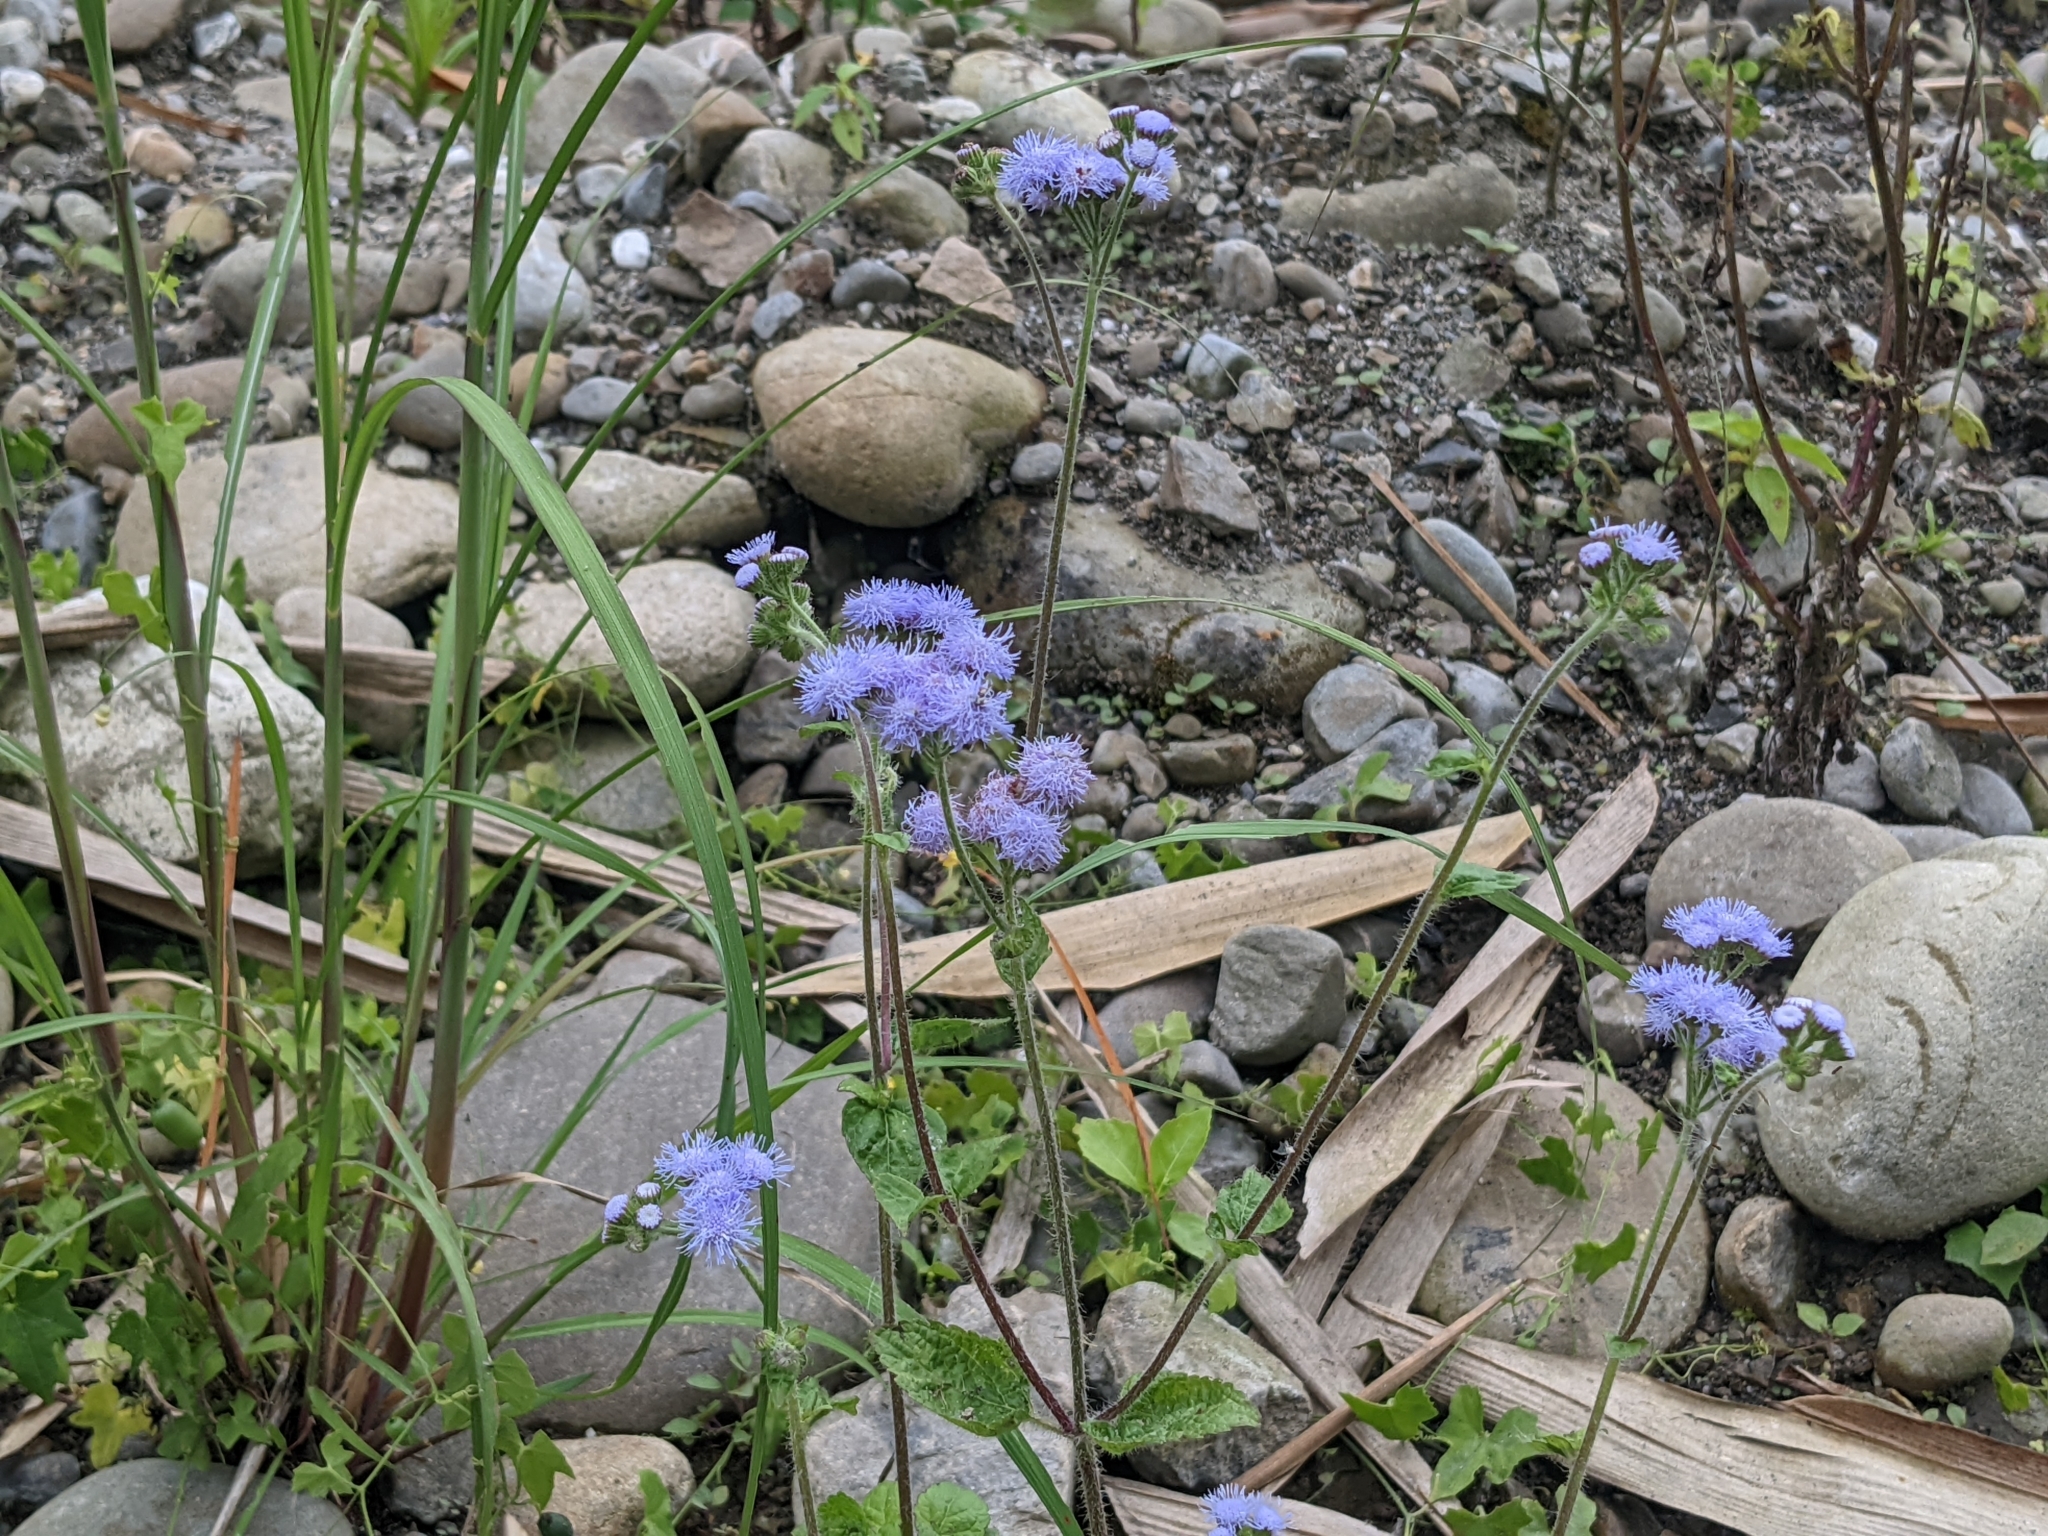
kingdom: Plantae
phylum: Tracheophyta
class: Magnoliopsida
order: Asterales
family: Asteraceae
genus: Ageratum
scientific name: Ageratum houstonianum
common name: Bluemink
